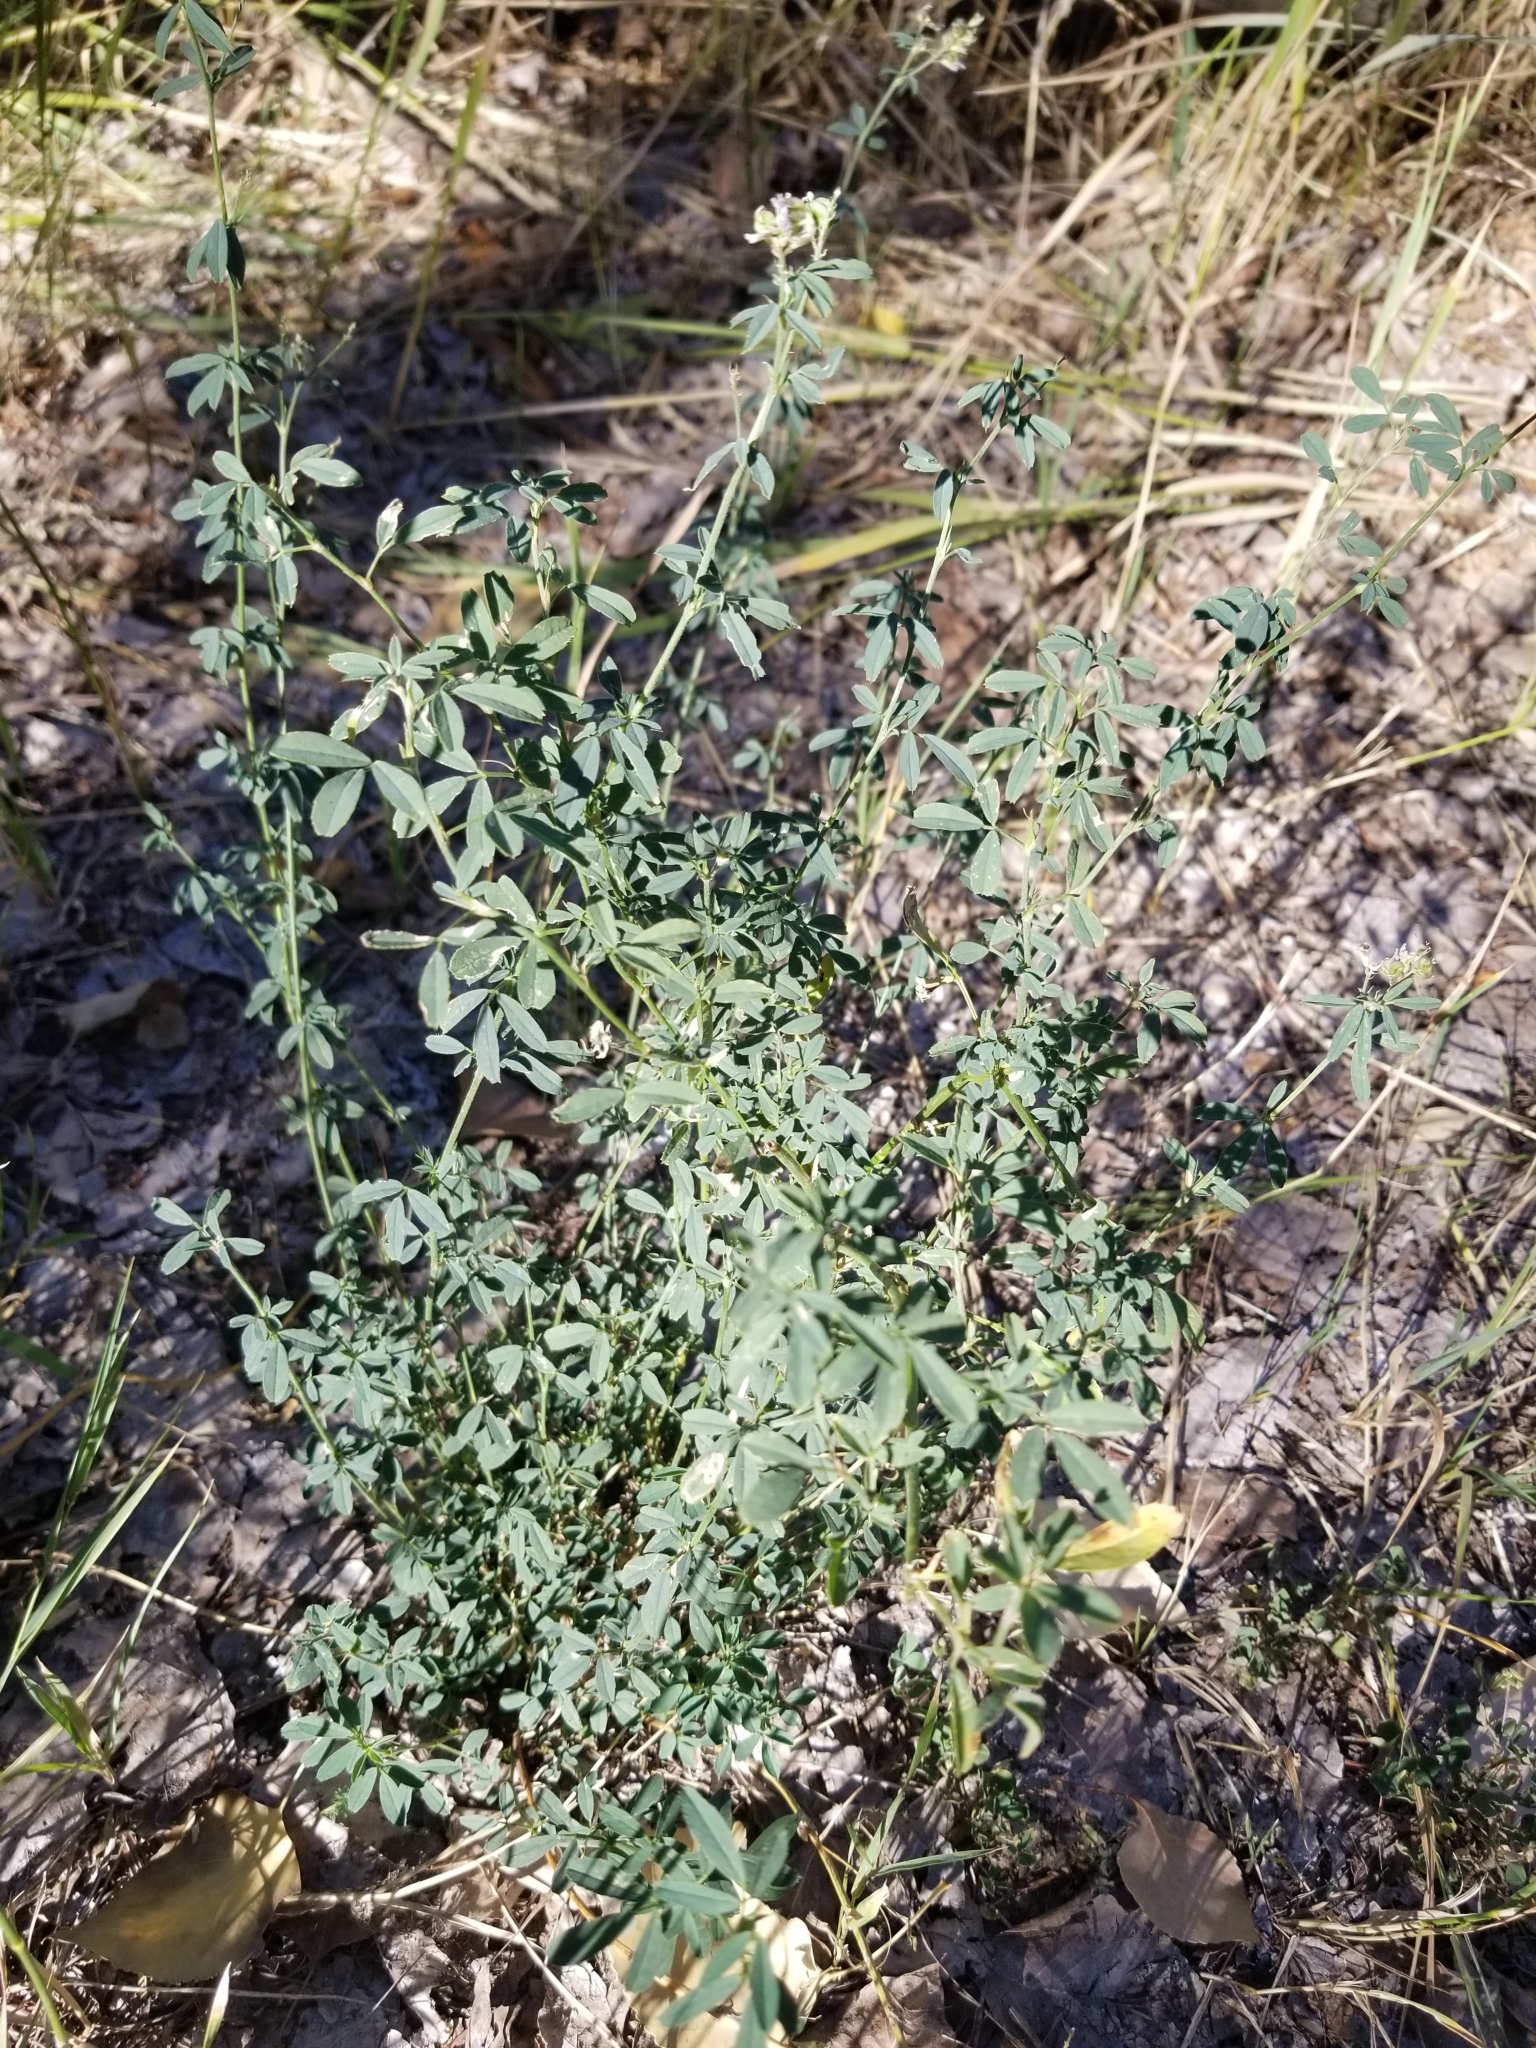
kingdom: Plantae
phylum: Tracheophyta
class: Magnoliopsida
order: Fabales
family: Fabaceae
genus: Medicago
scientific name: Medicago sativa
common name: Alfalfa
